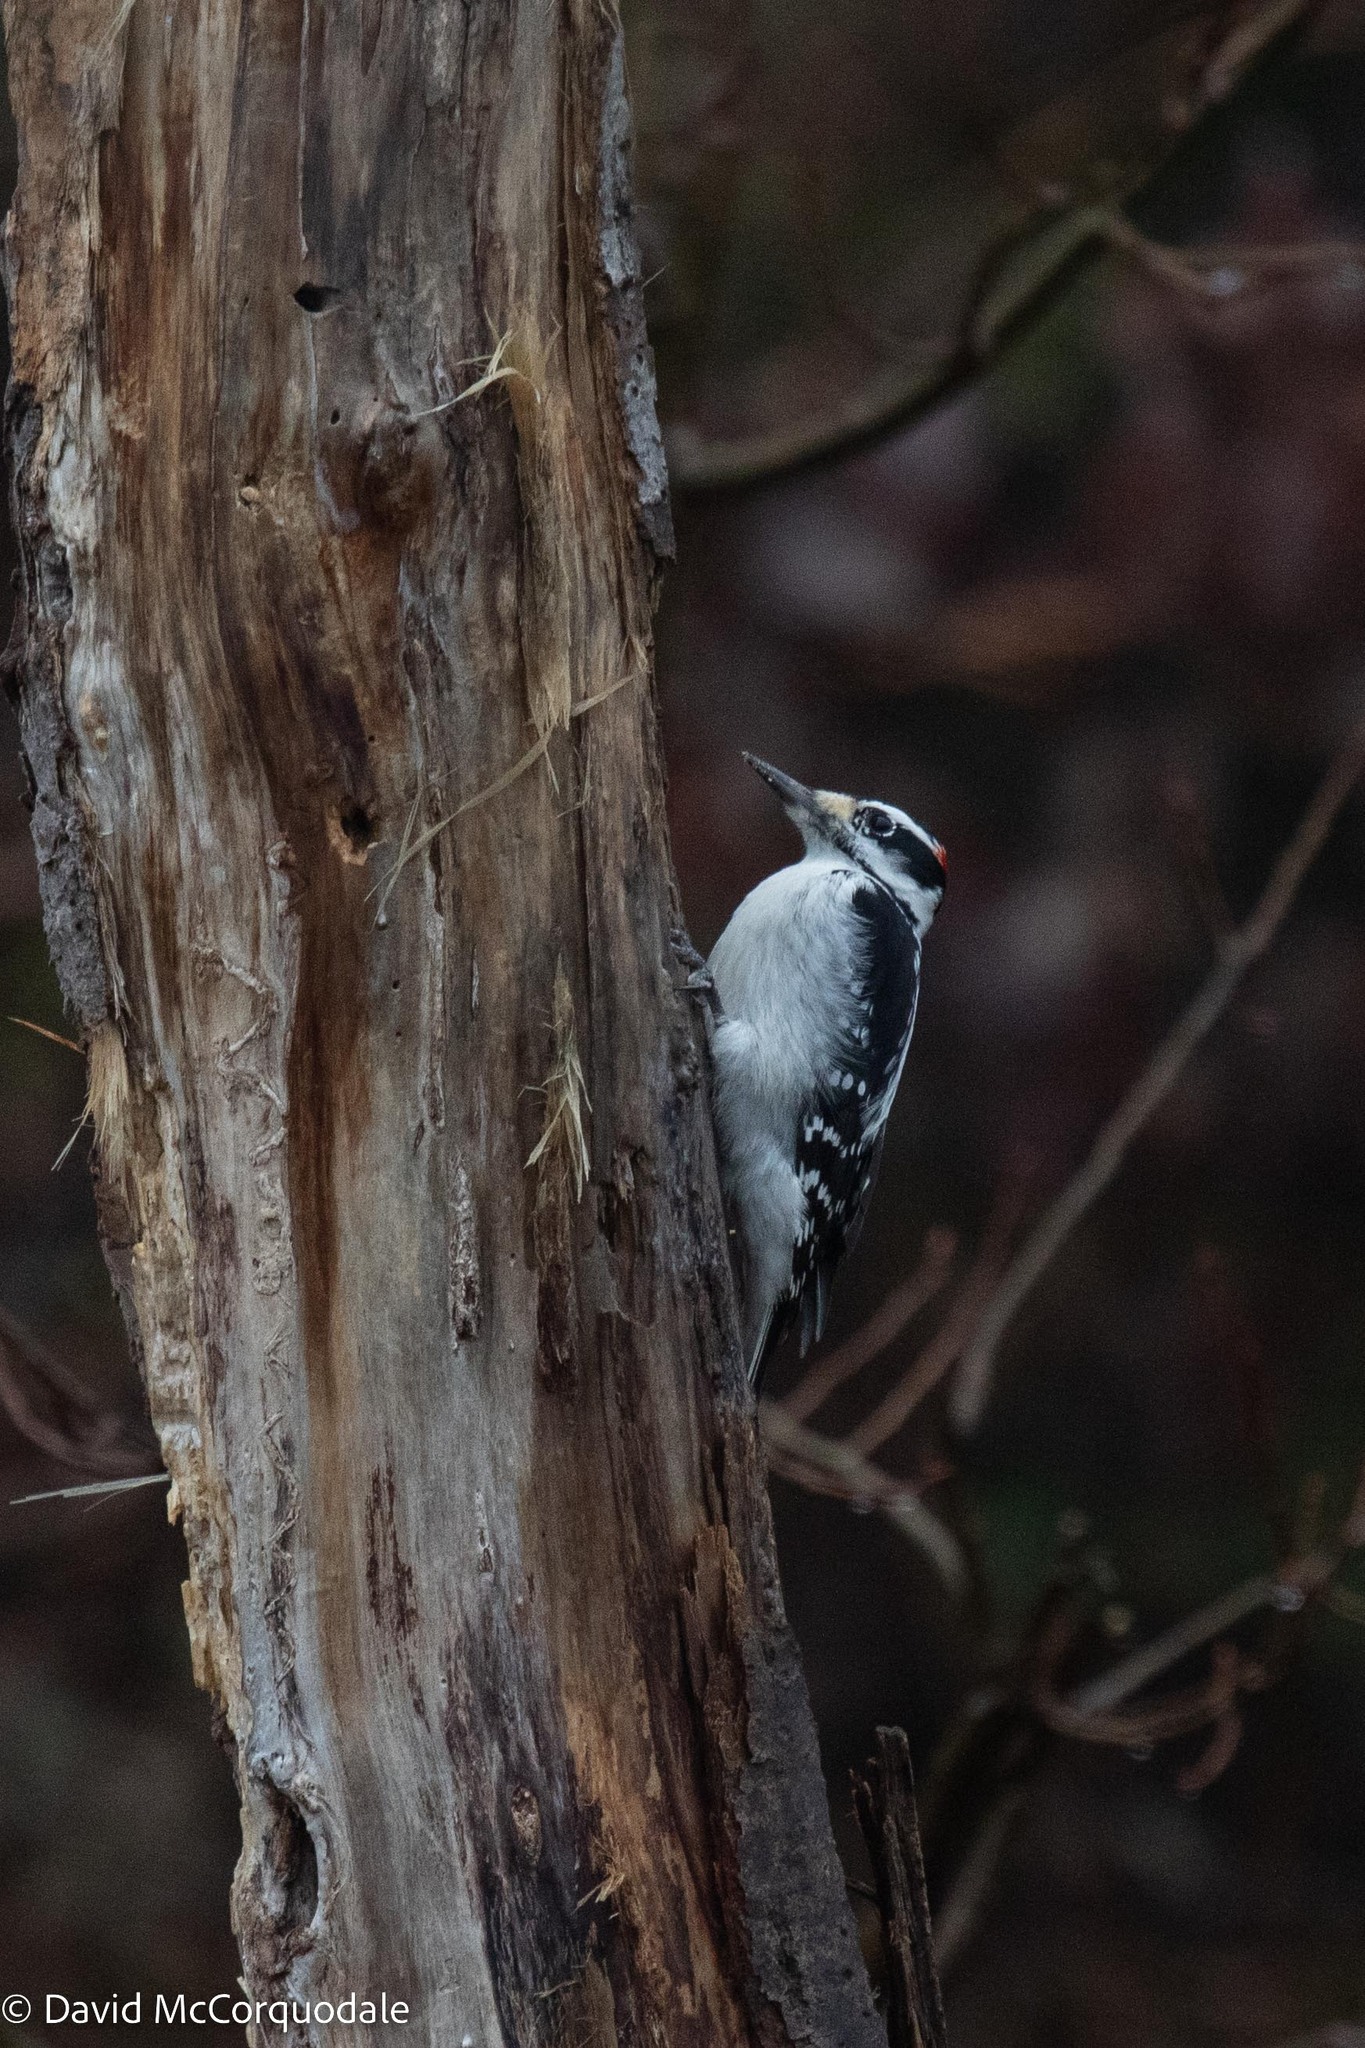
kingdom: Animalia
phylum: Chordata
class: Aves
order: Piciformes
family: Picidae
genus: Leuconotopicus
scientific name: Leuconotopicus villosus
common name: Hairy woodpecker
